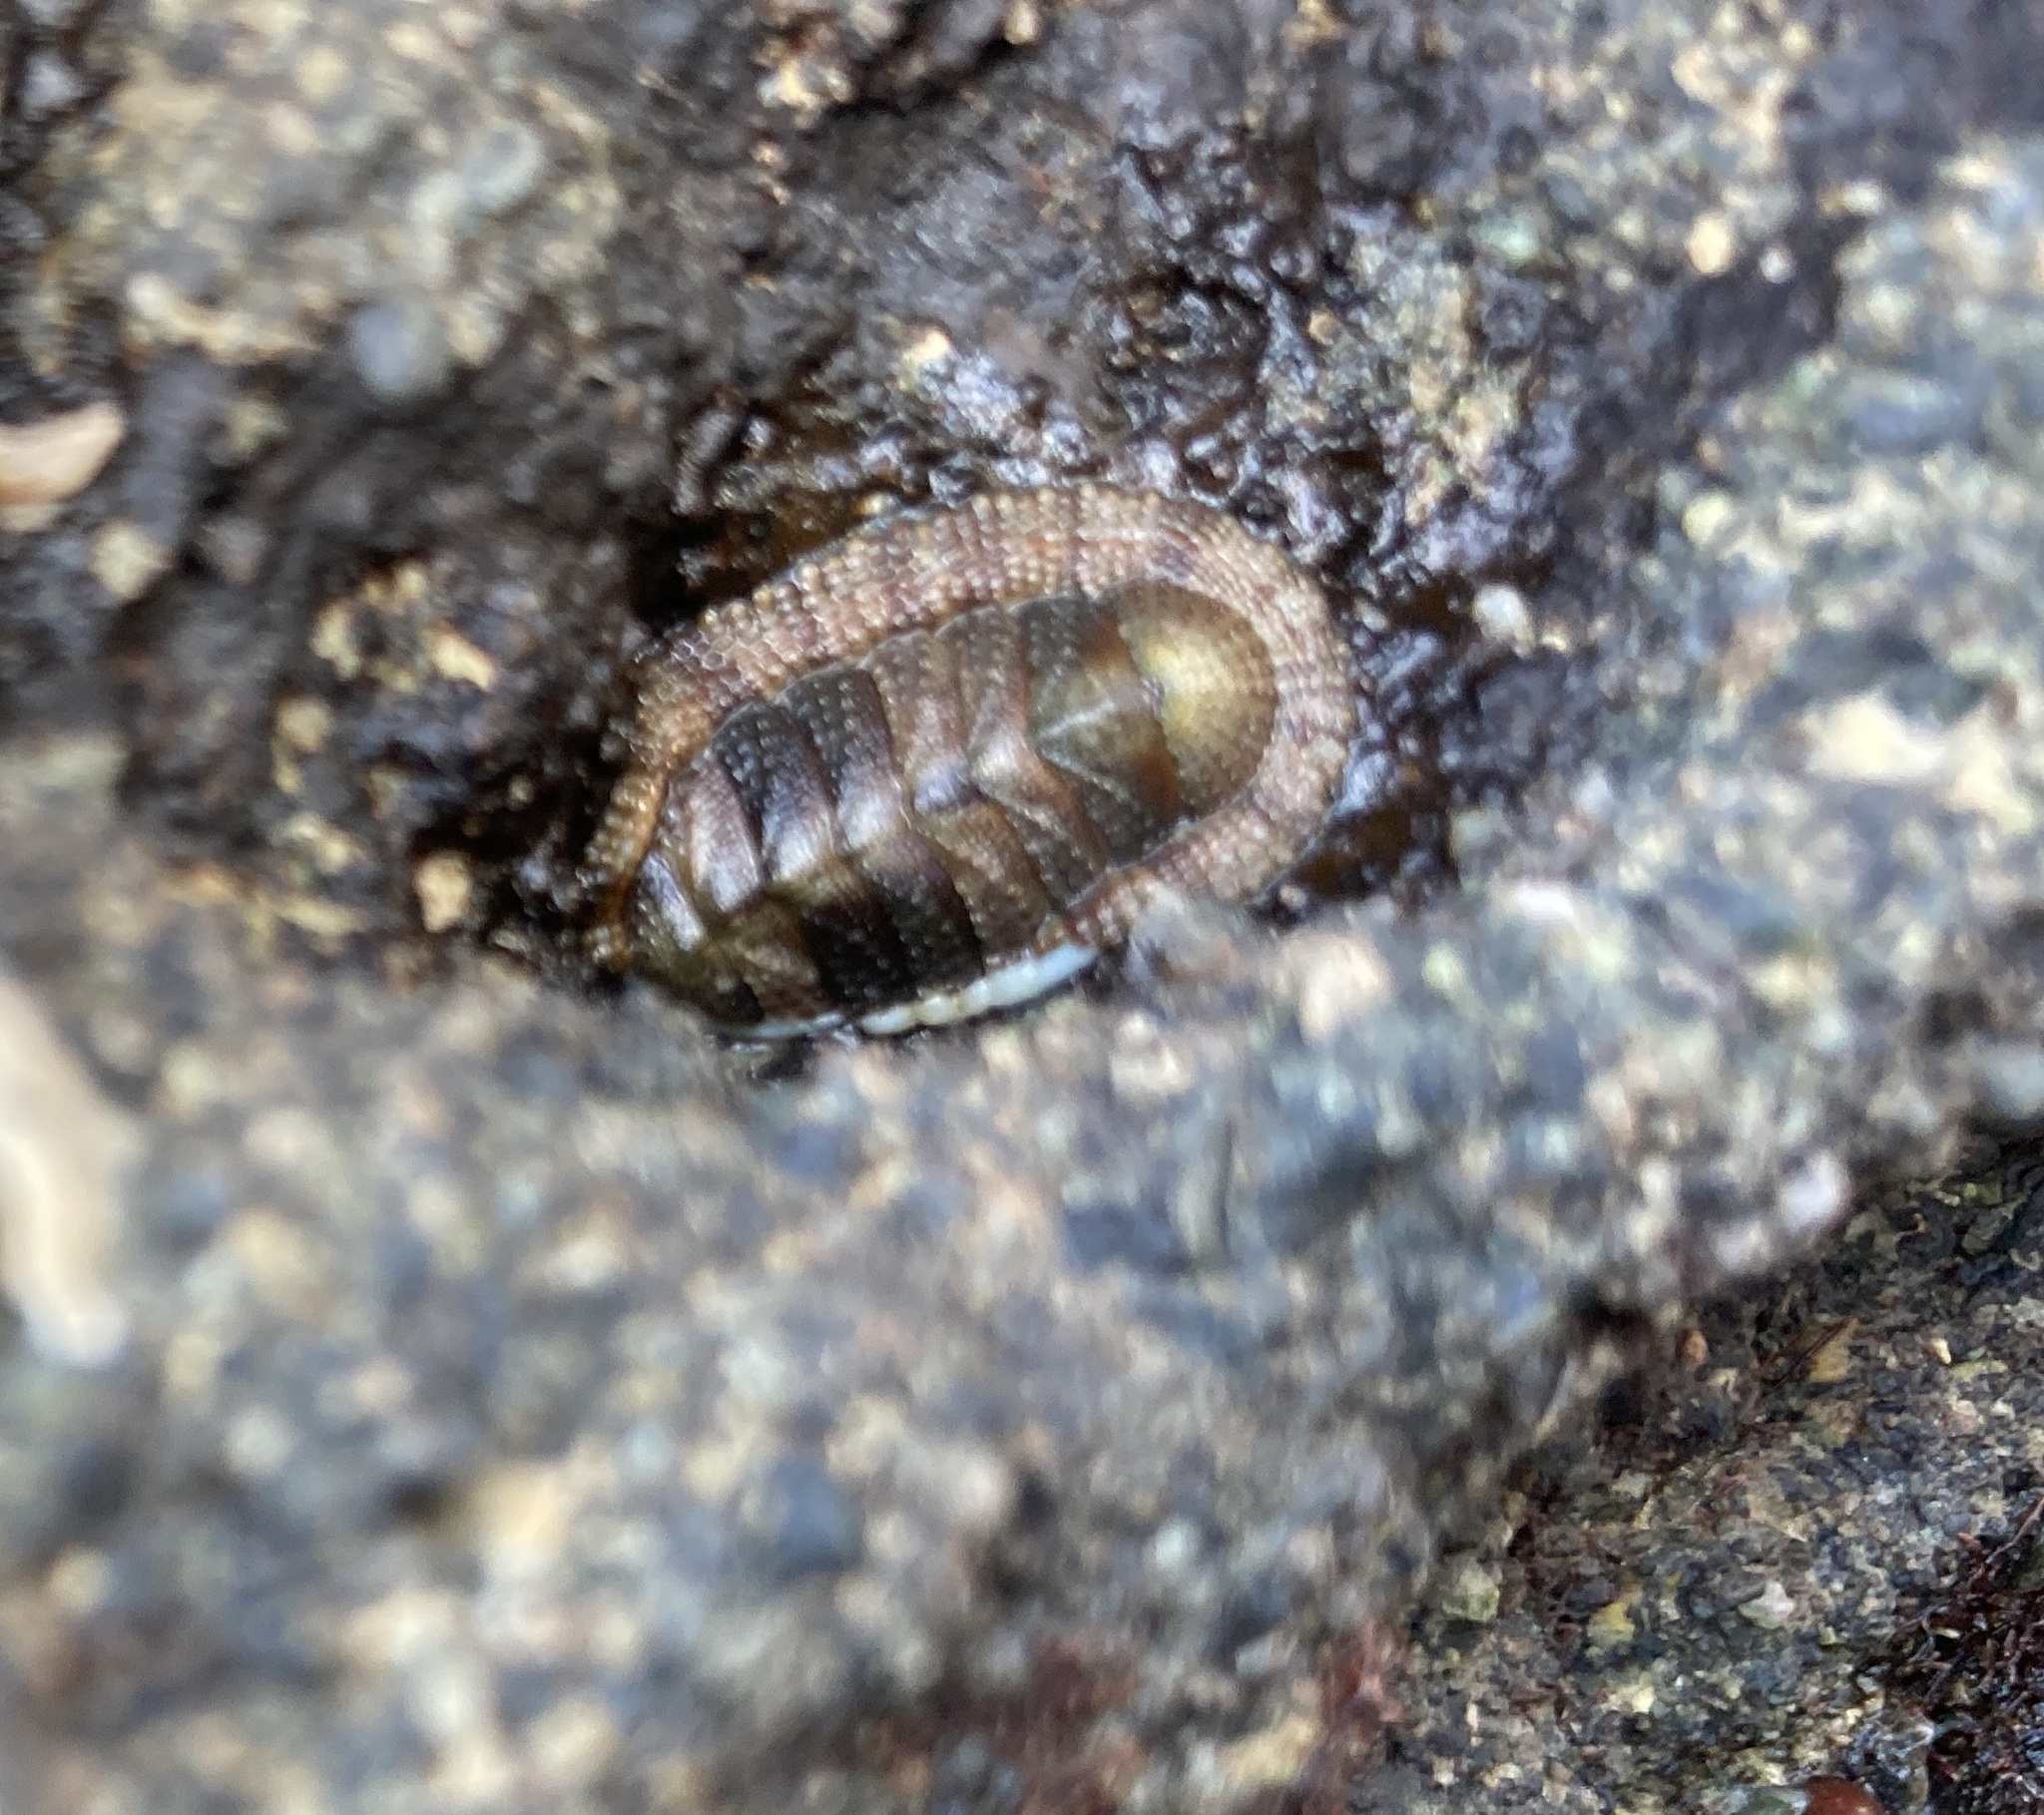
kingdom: Animalia
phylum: Mollusca
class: Polyplacophora
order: Chitonida
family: Chitonidae
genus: Sypharochiton
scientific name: Sypharochiton pelliserpentis
